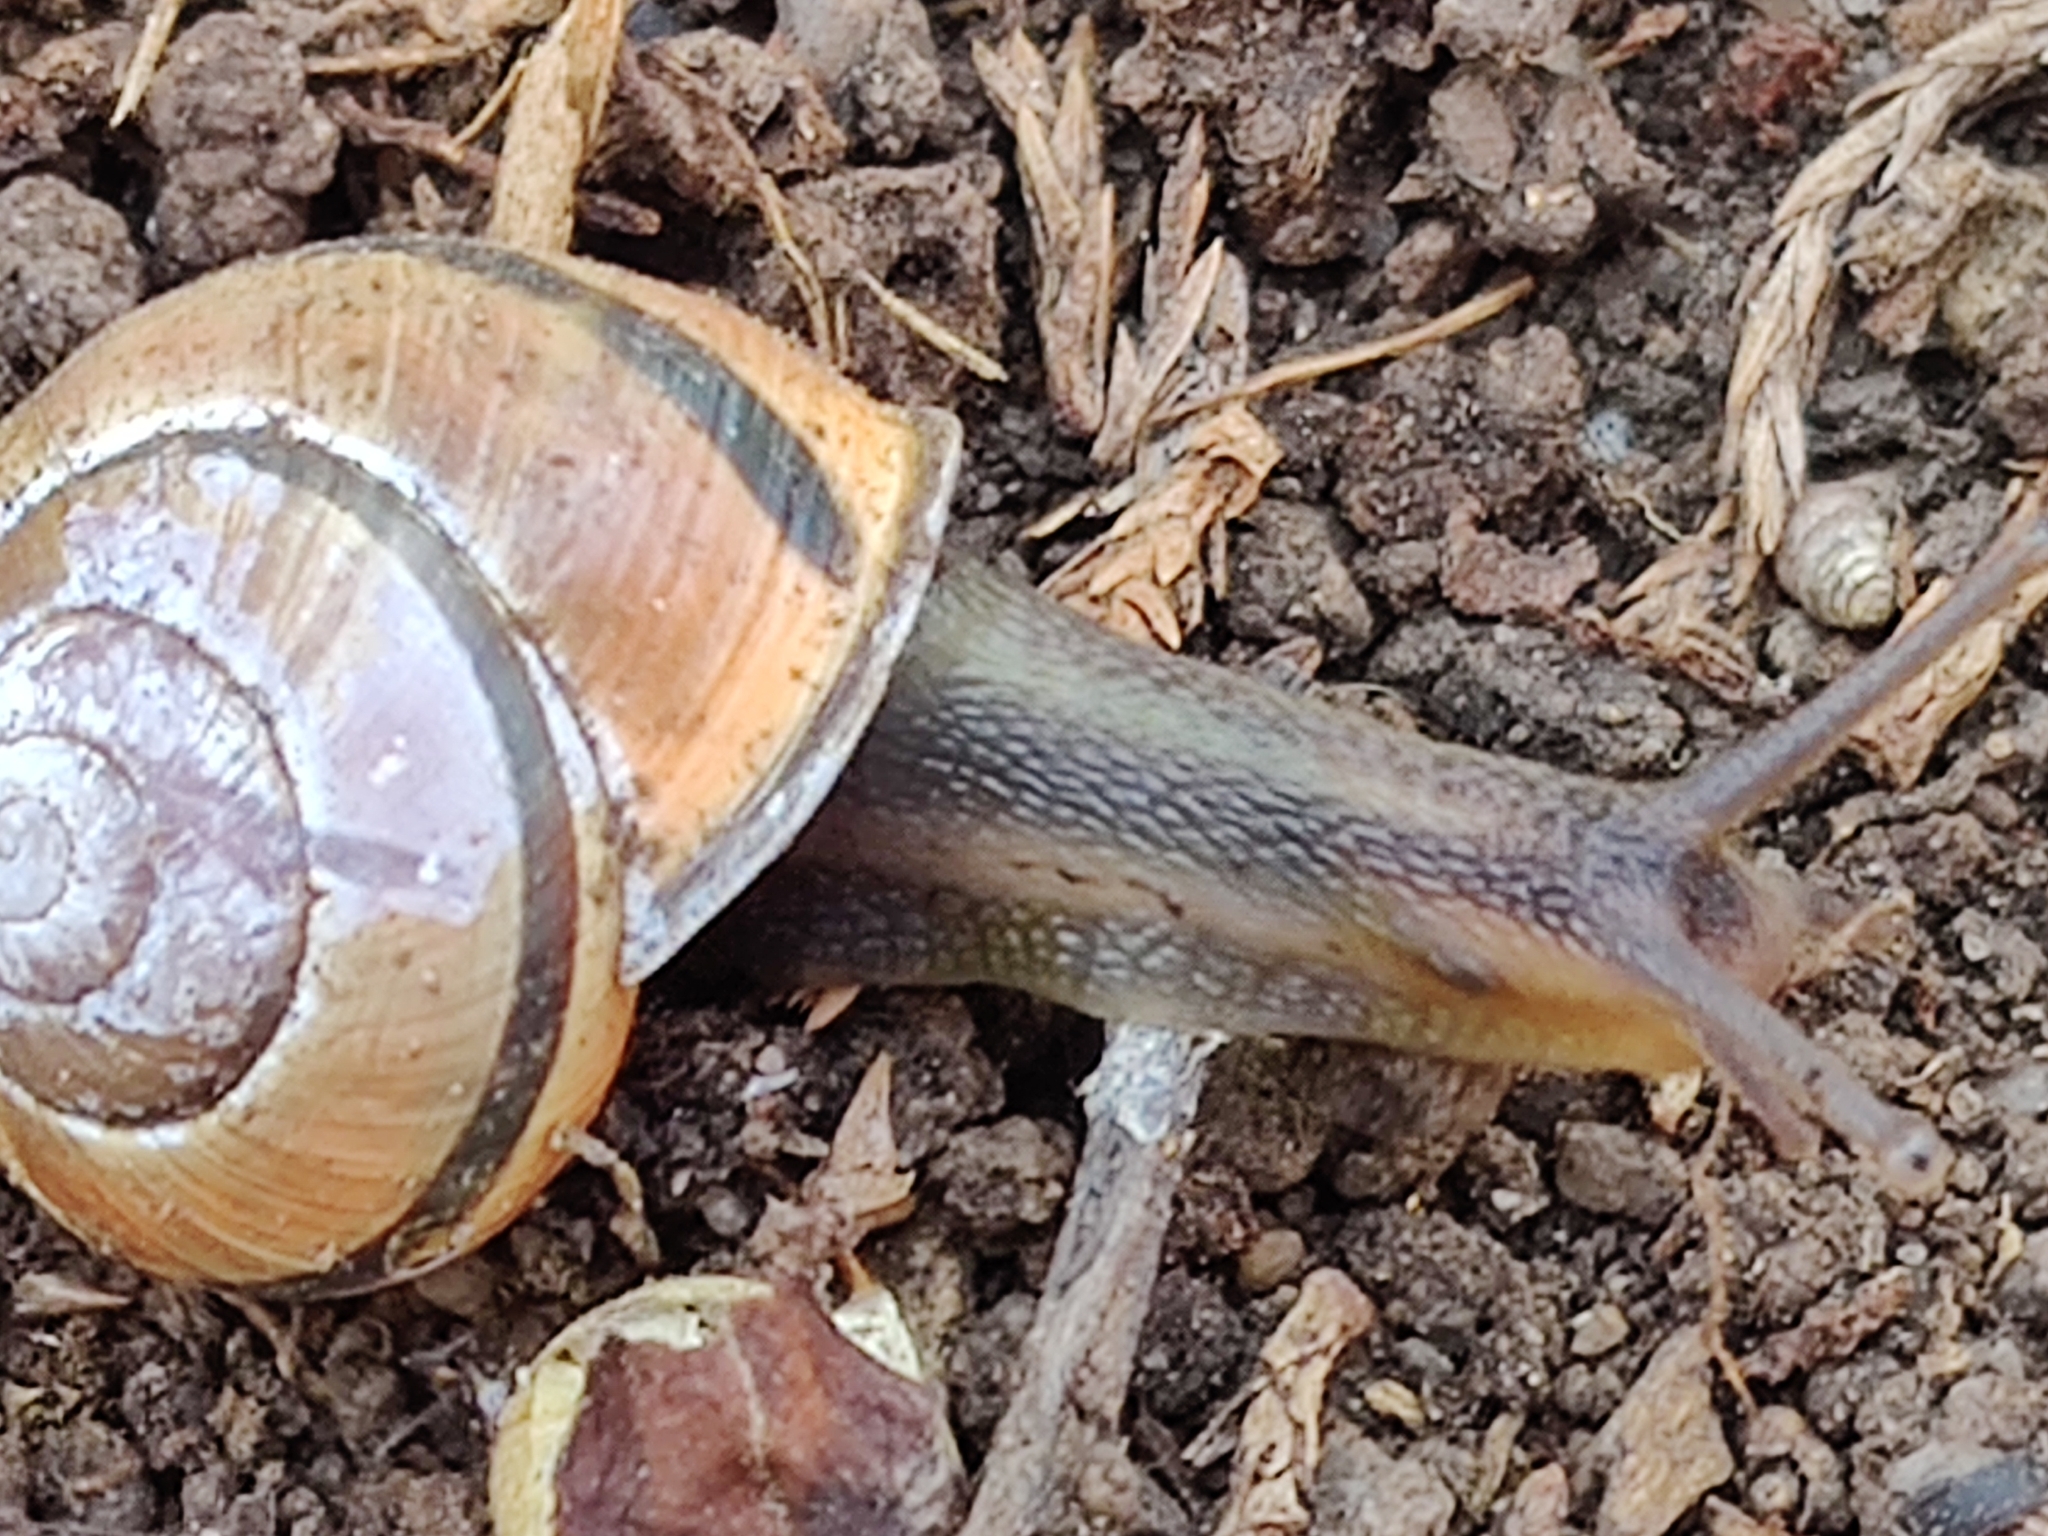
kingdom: Animalia
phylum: Mollusca
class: Gastropoda
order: Stylommatophora
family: Helicidae
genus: Cepaea
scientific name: Cepaea nemoralis
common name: Grovesnail
